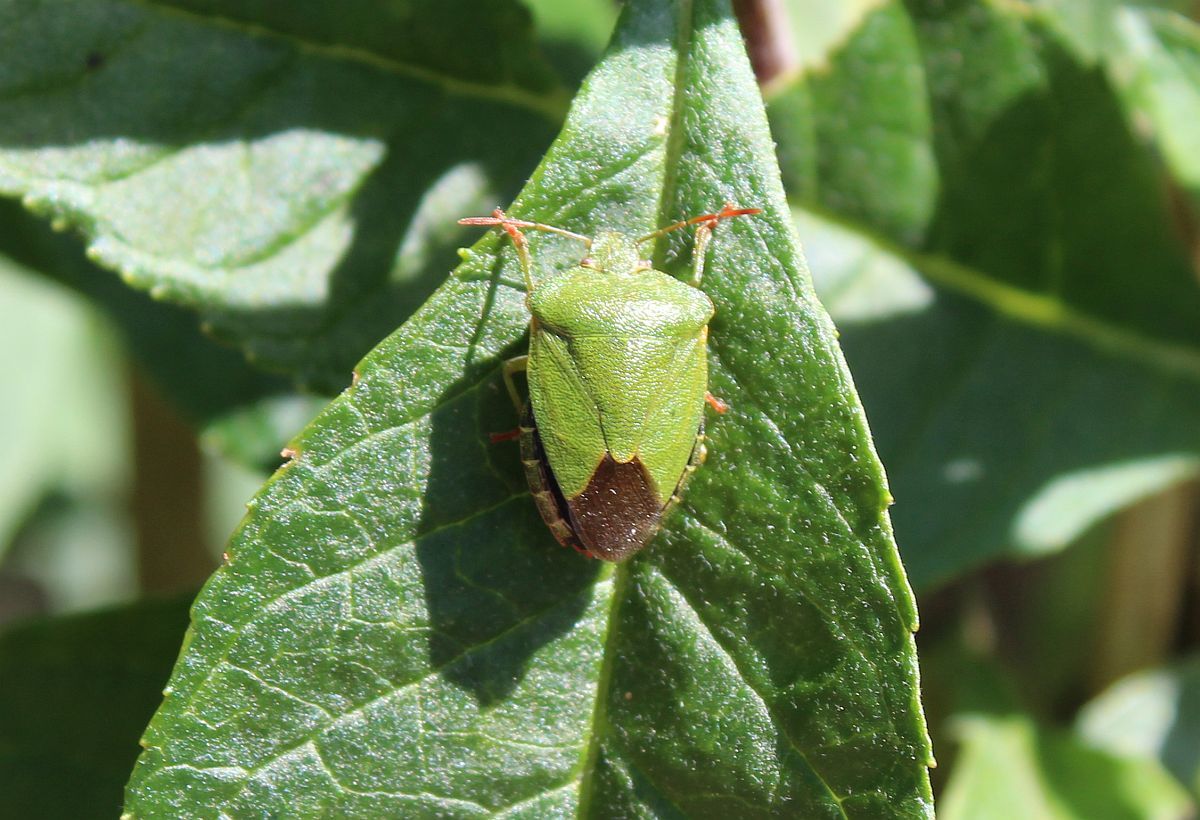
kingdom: Animalia
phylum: Arthropoda
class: Insecta
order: Hemiptera
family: Pentatomidae
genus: Palomena
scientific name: Palomena prasina
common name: Green shieldbug
